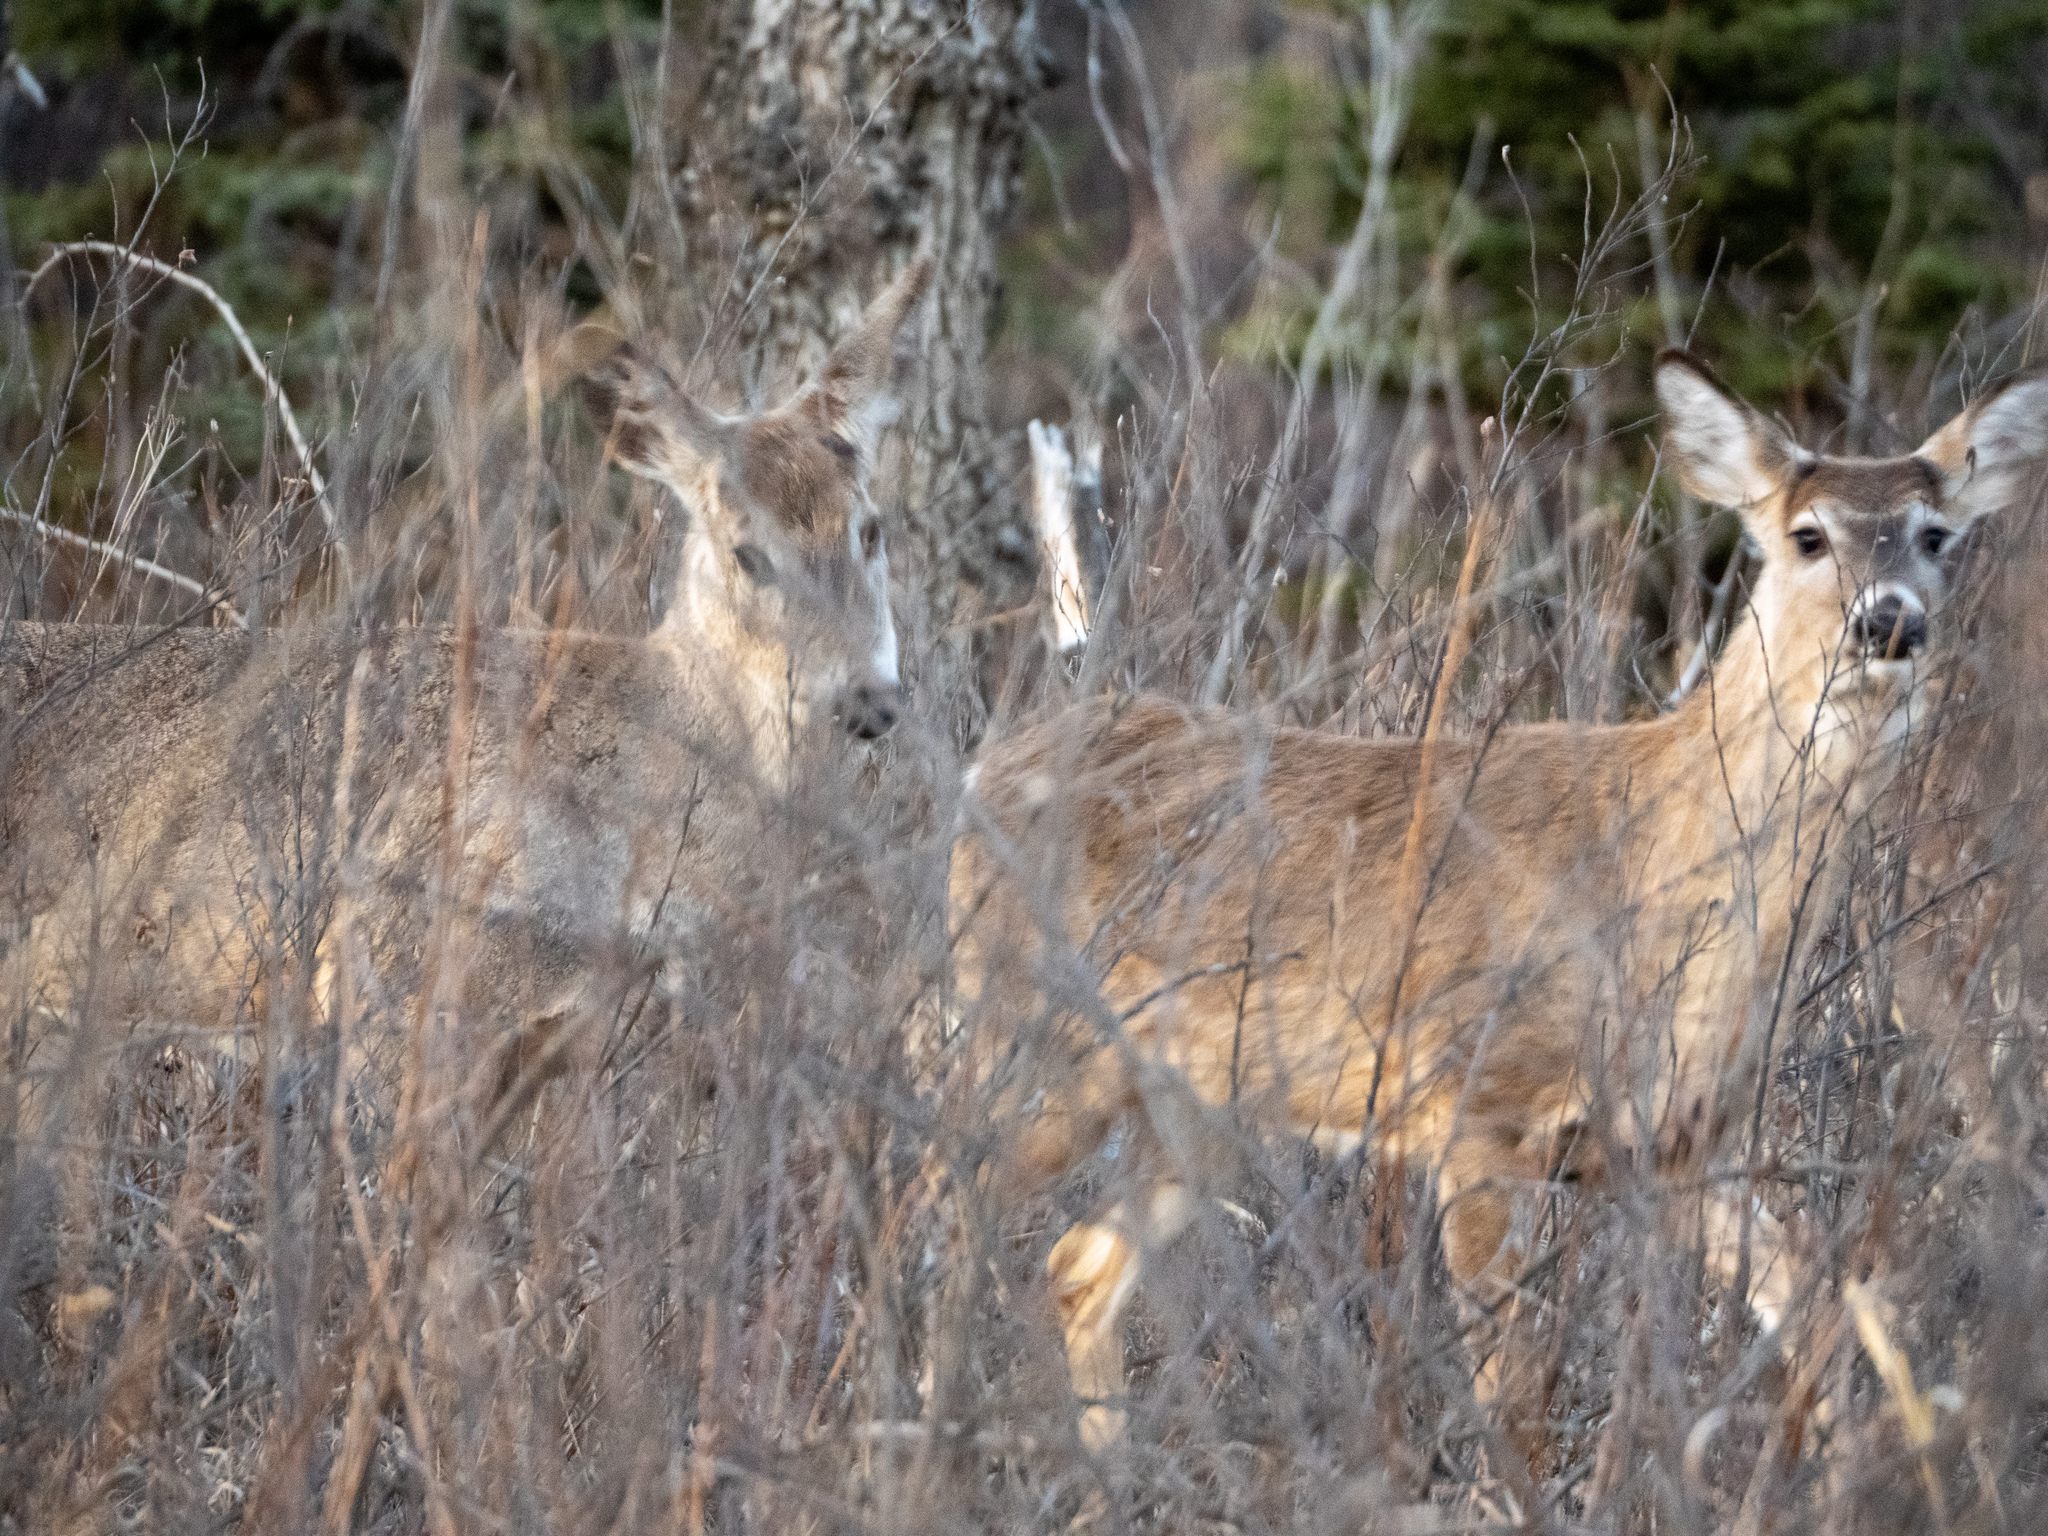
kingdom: Animalia
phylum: Chordata
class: Mammalia
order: Artiodactyla
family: Cervidae
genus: Odocoileus
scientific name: Odocoileus virginianus
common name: White-tailed deer
